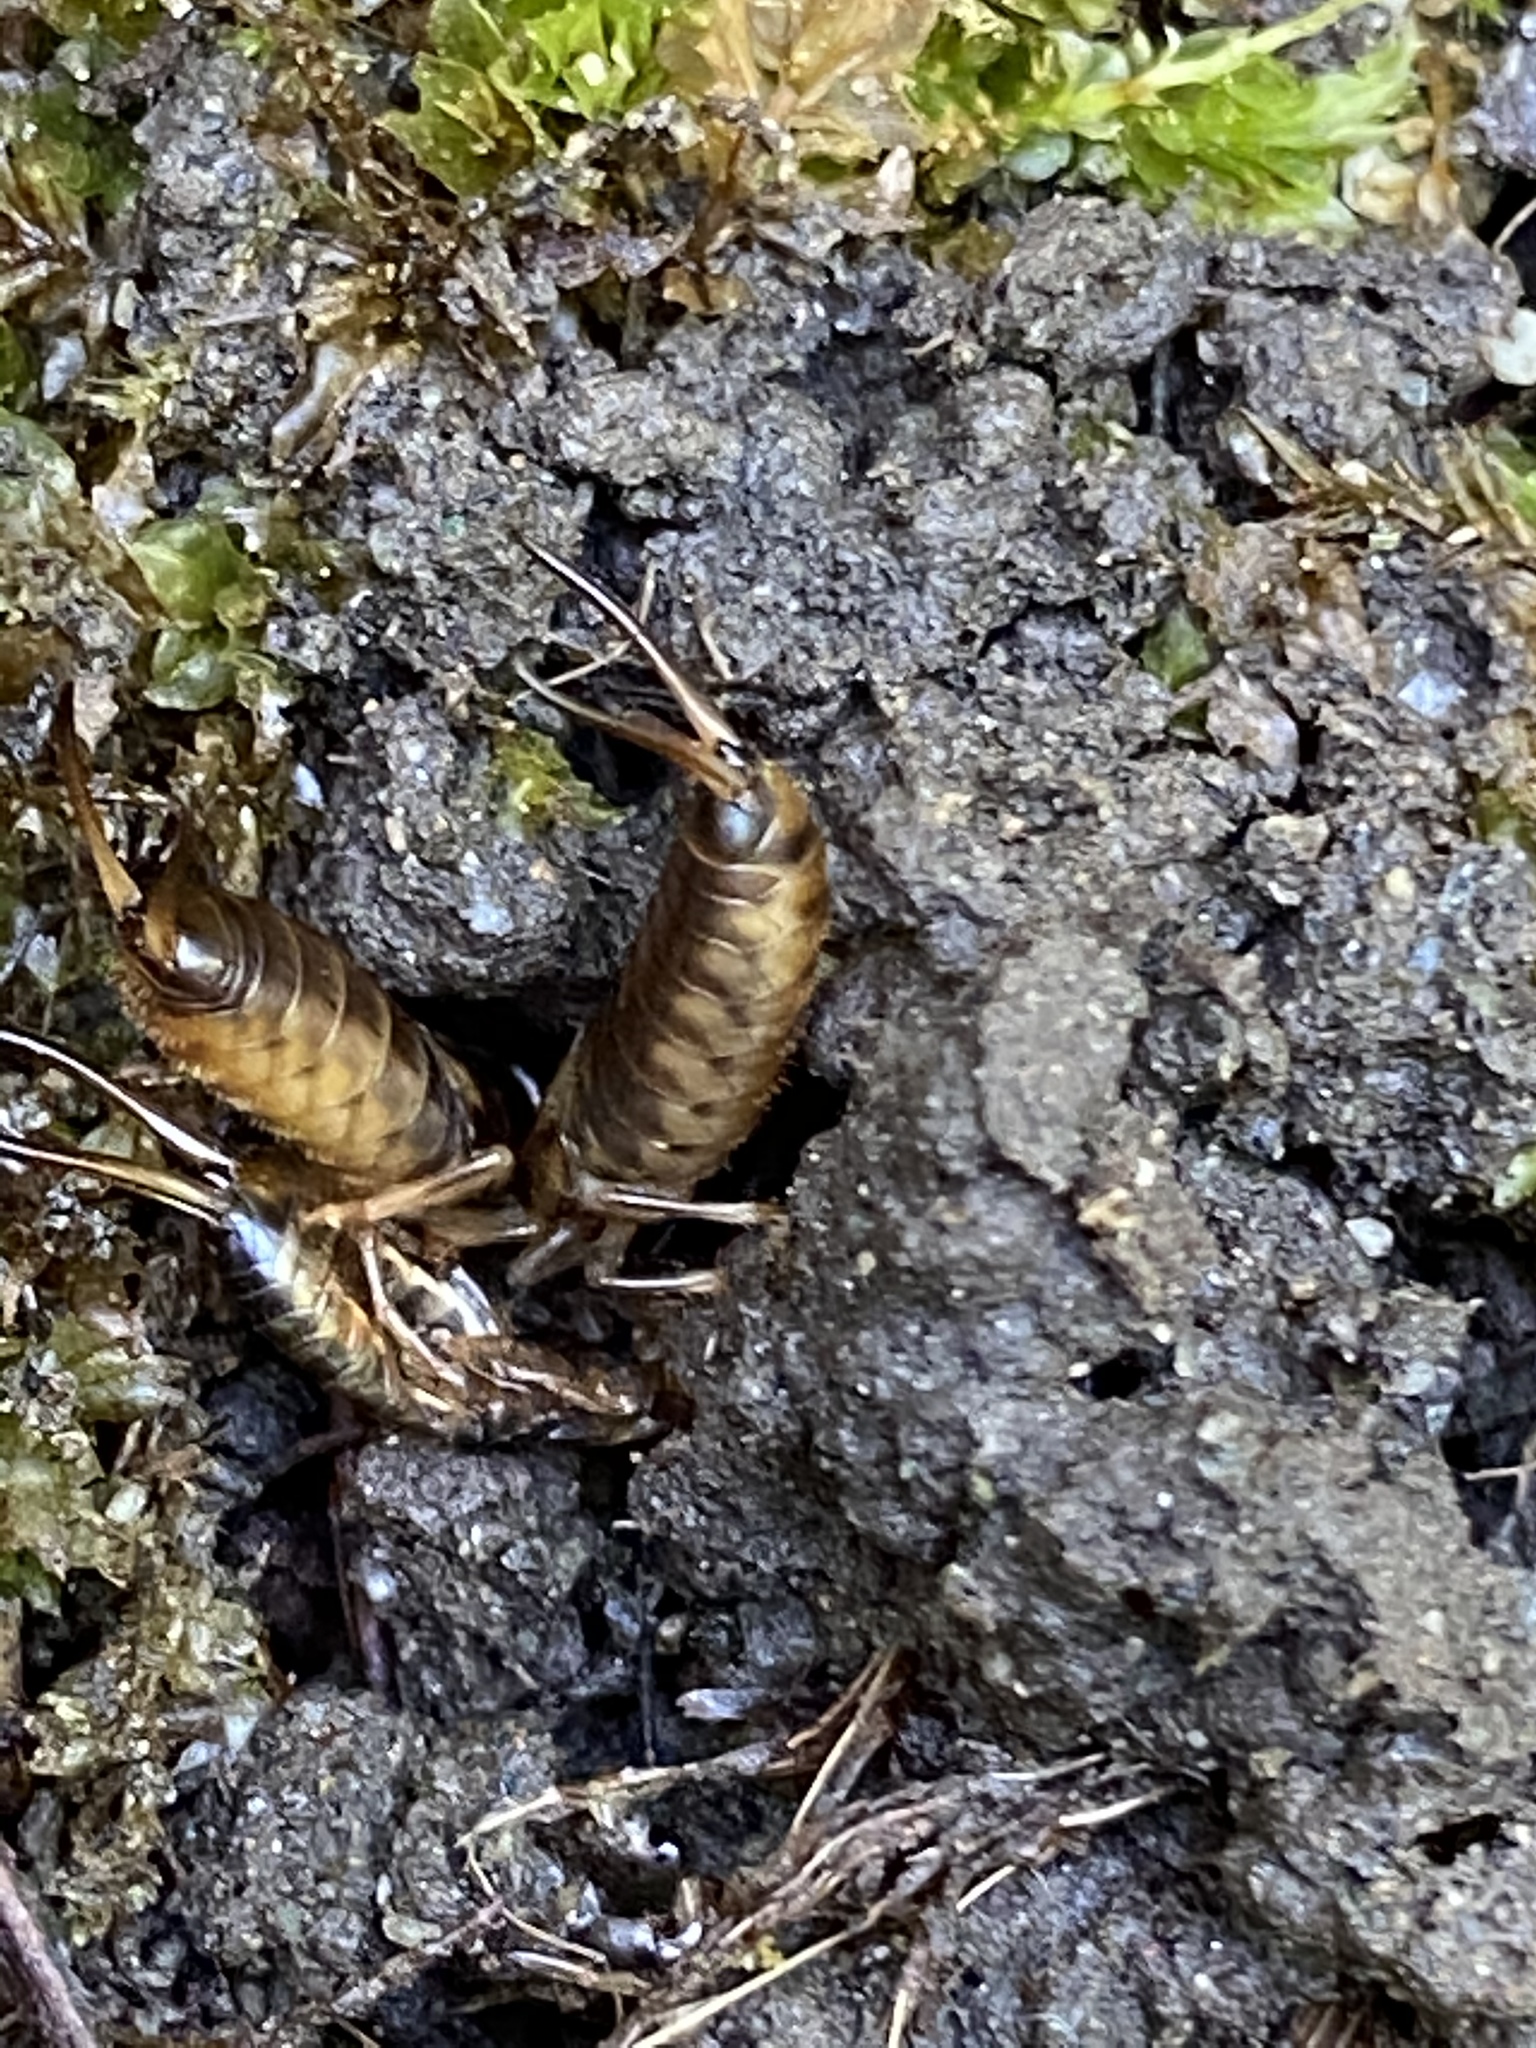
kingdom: Animalia
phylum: Arthropoda
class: Insecta
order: Dermaptera
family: Forficulidae
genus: Forficula
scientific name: Forficula
